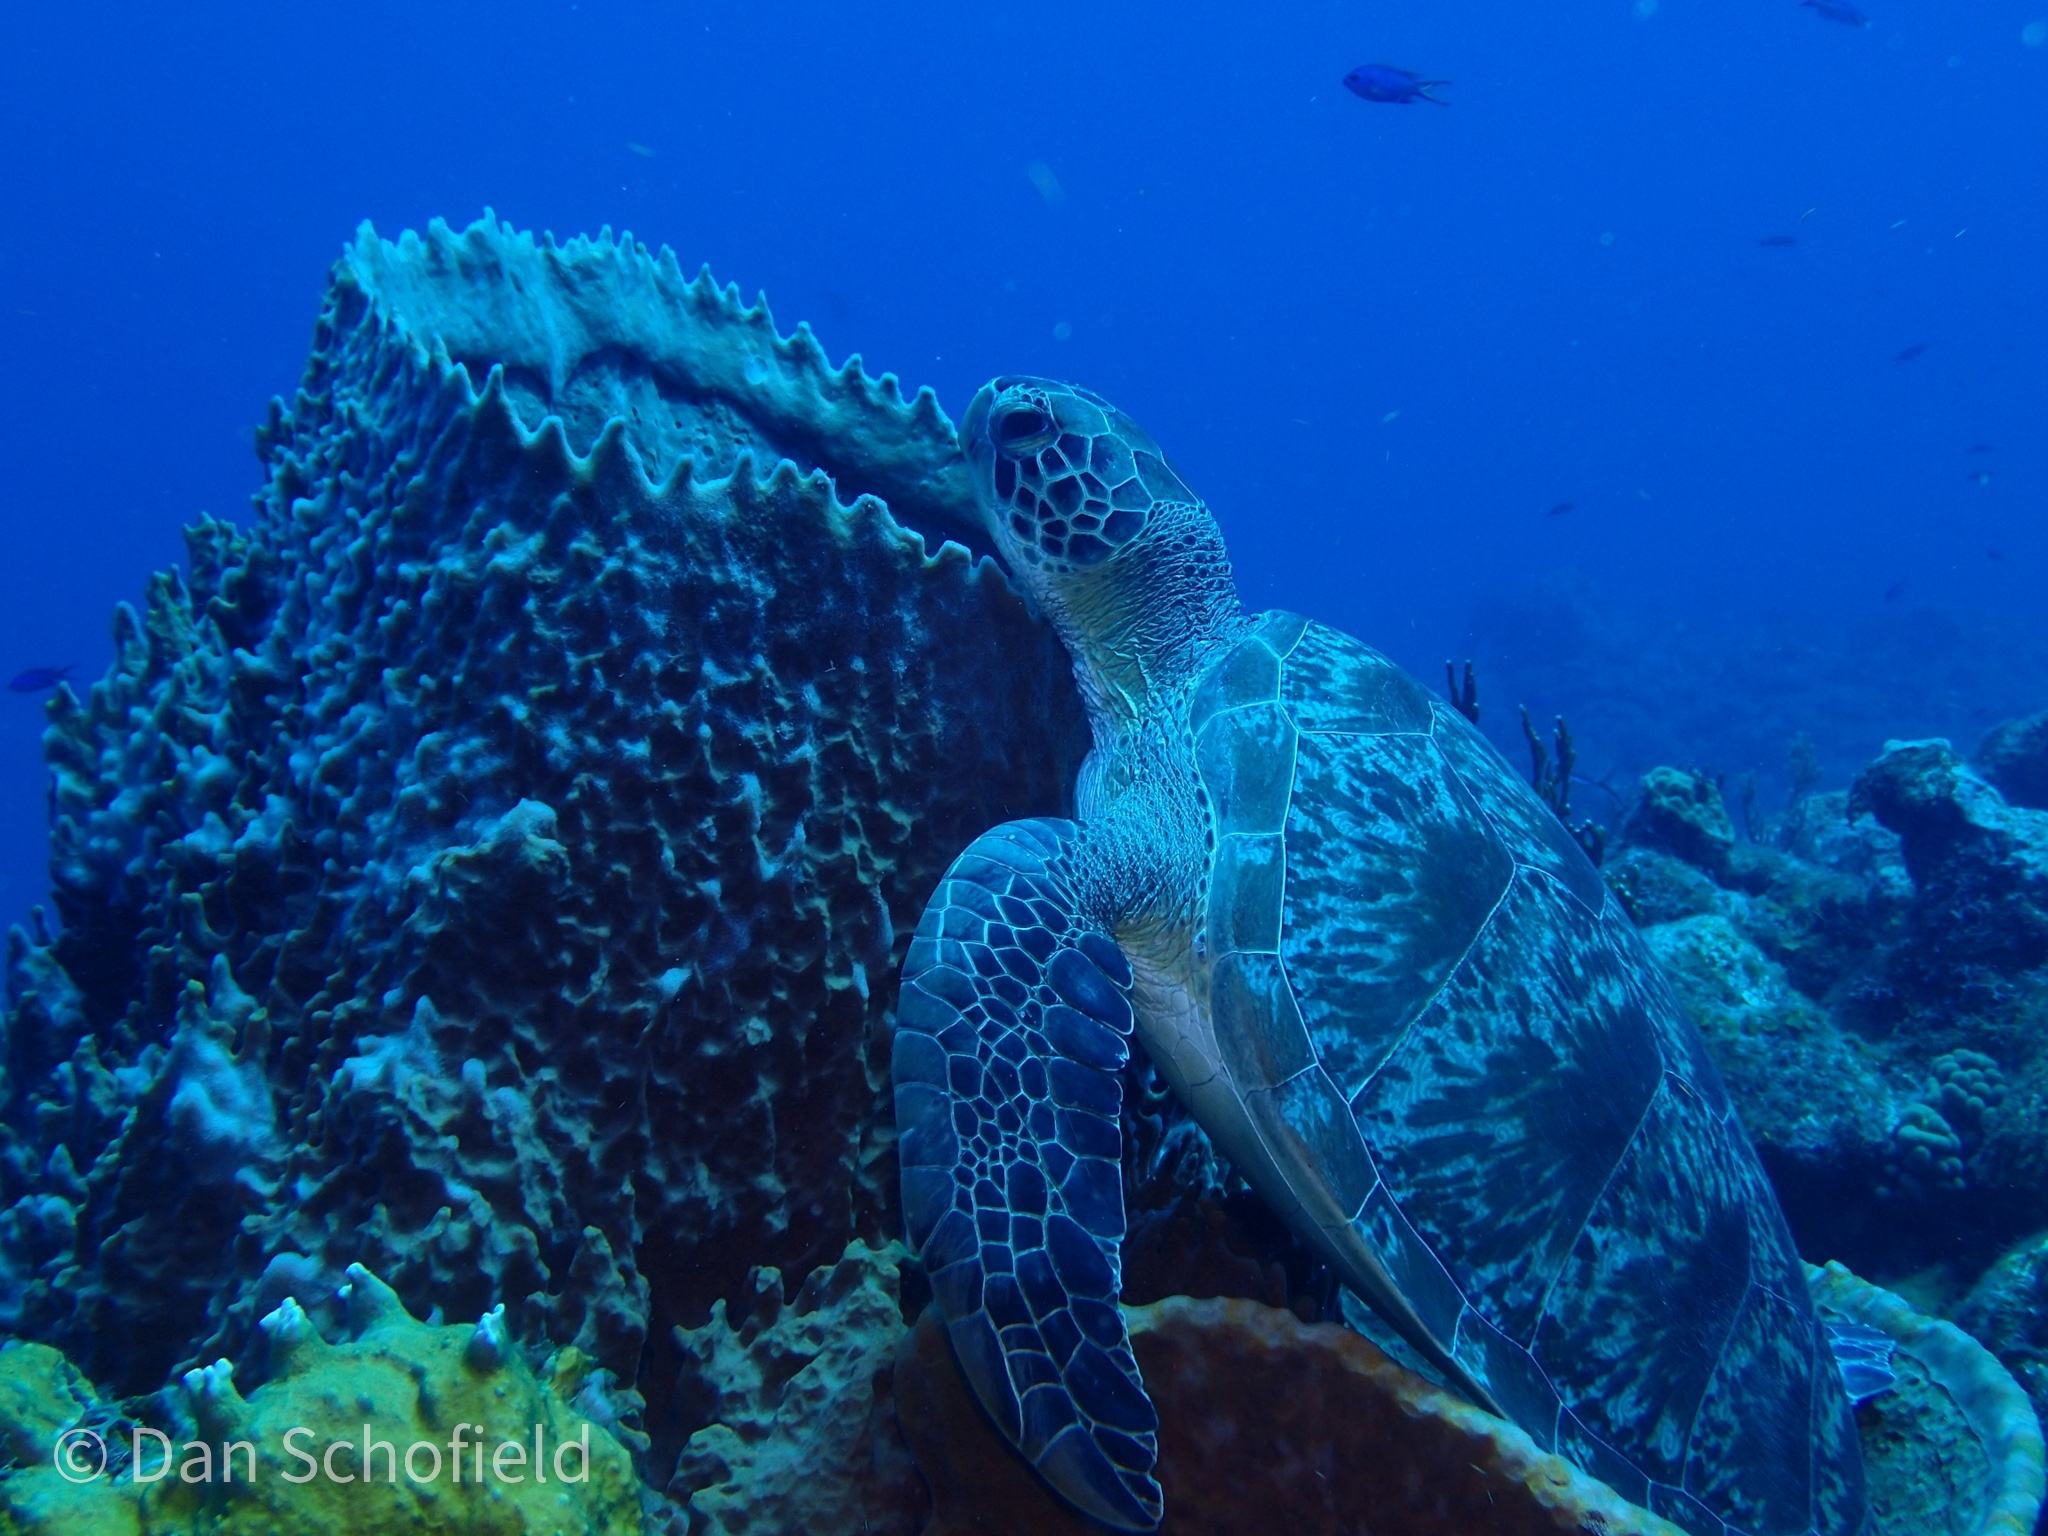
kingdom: Animalia
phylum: Chordata
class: Testudines
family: Cheloniidae
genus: Chelonia
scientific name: Chelonia mydas
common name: Green turtle
